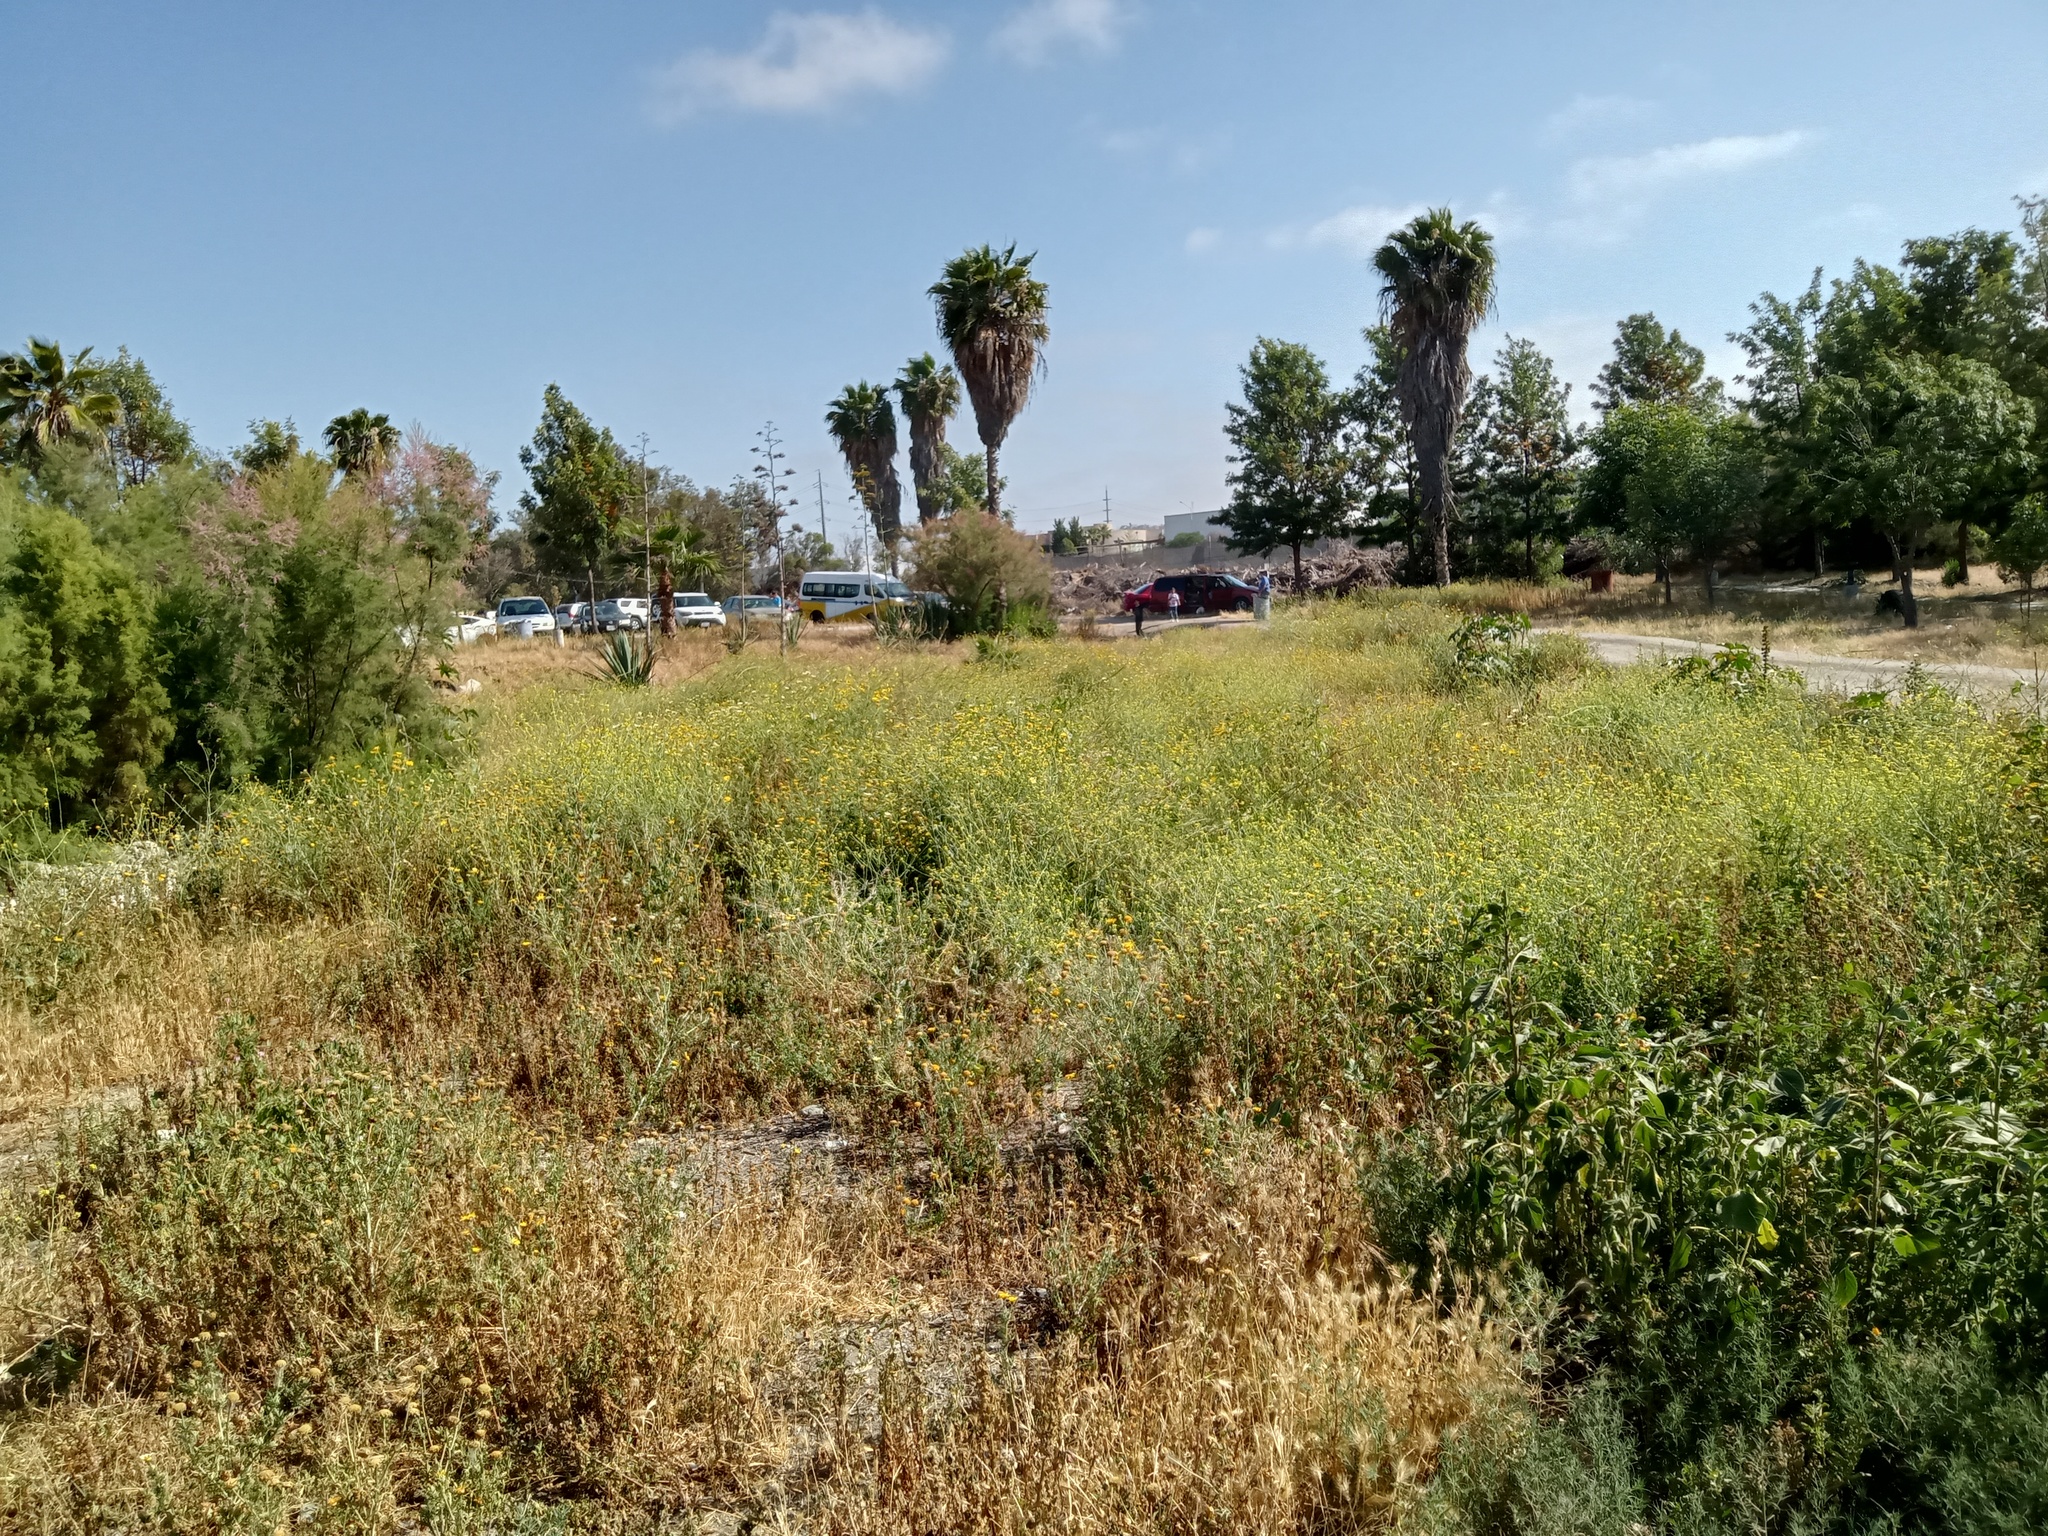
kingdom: Plantae
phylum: Tracheophyta
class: Magnoliopsida
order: Brassicales
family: Brassicaceae
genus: Hirschfeldia
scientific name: Hirschfeldia incana
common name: Hoary mustard
